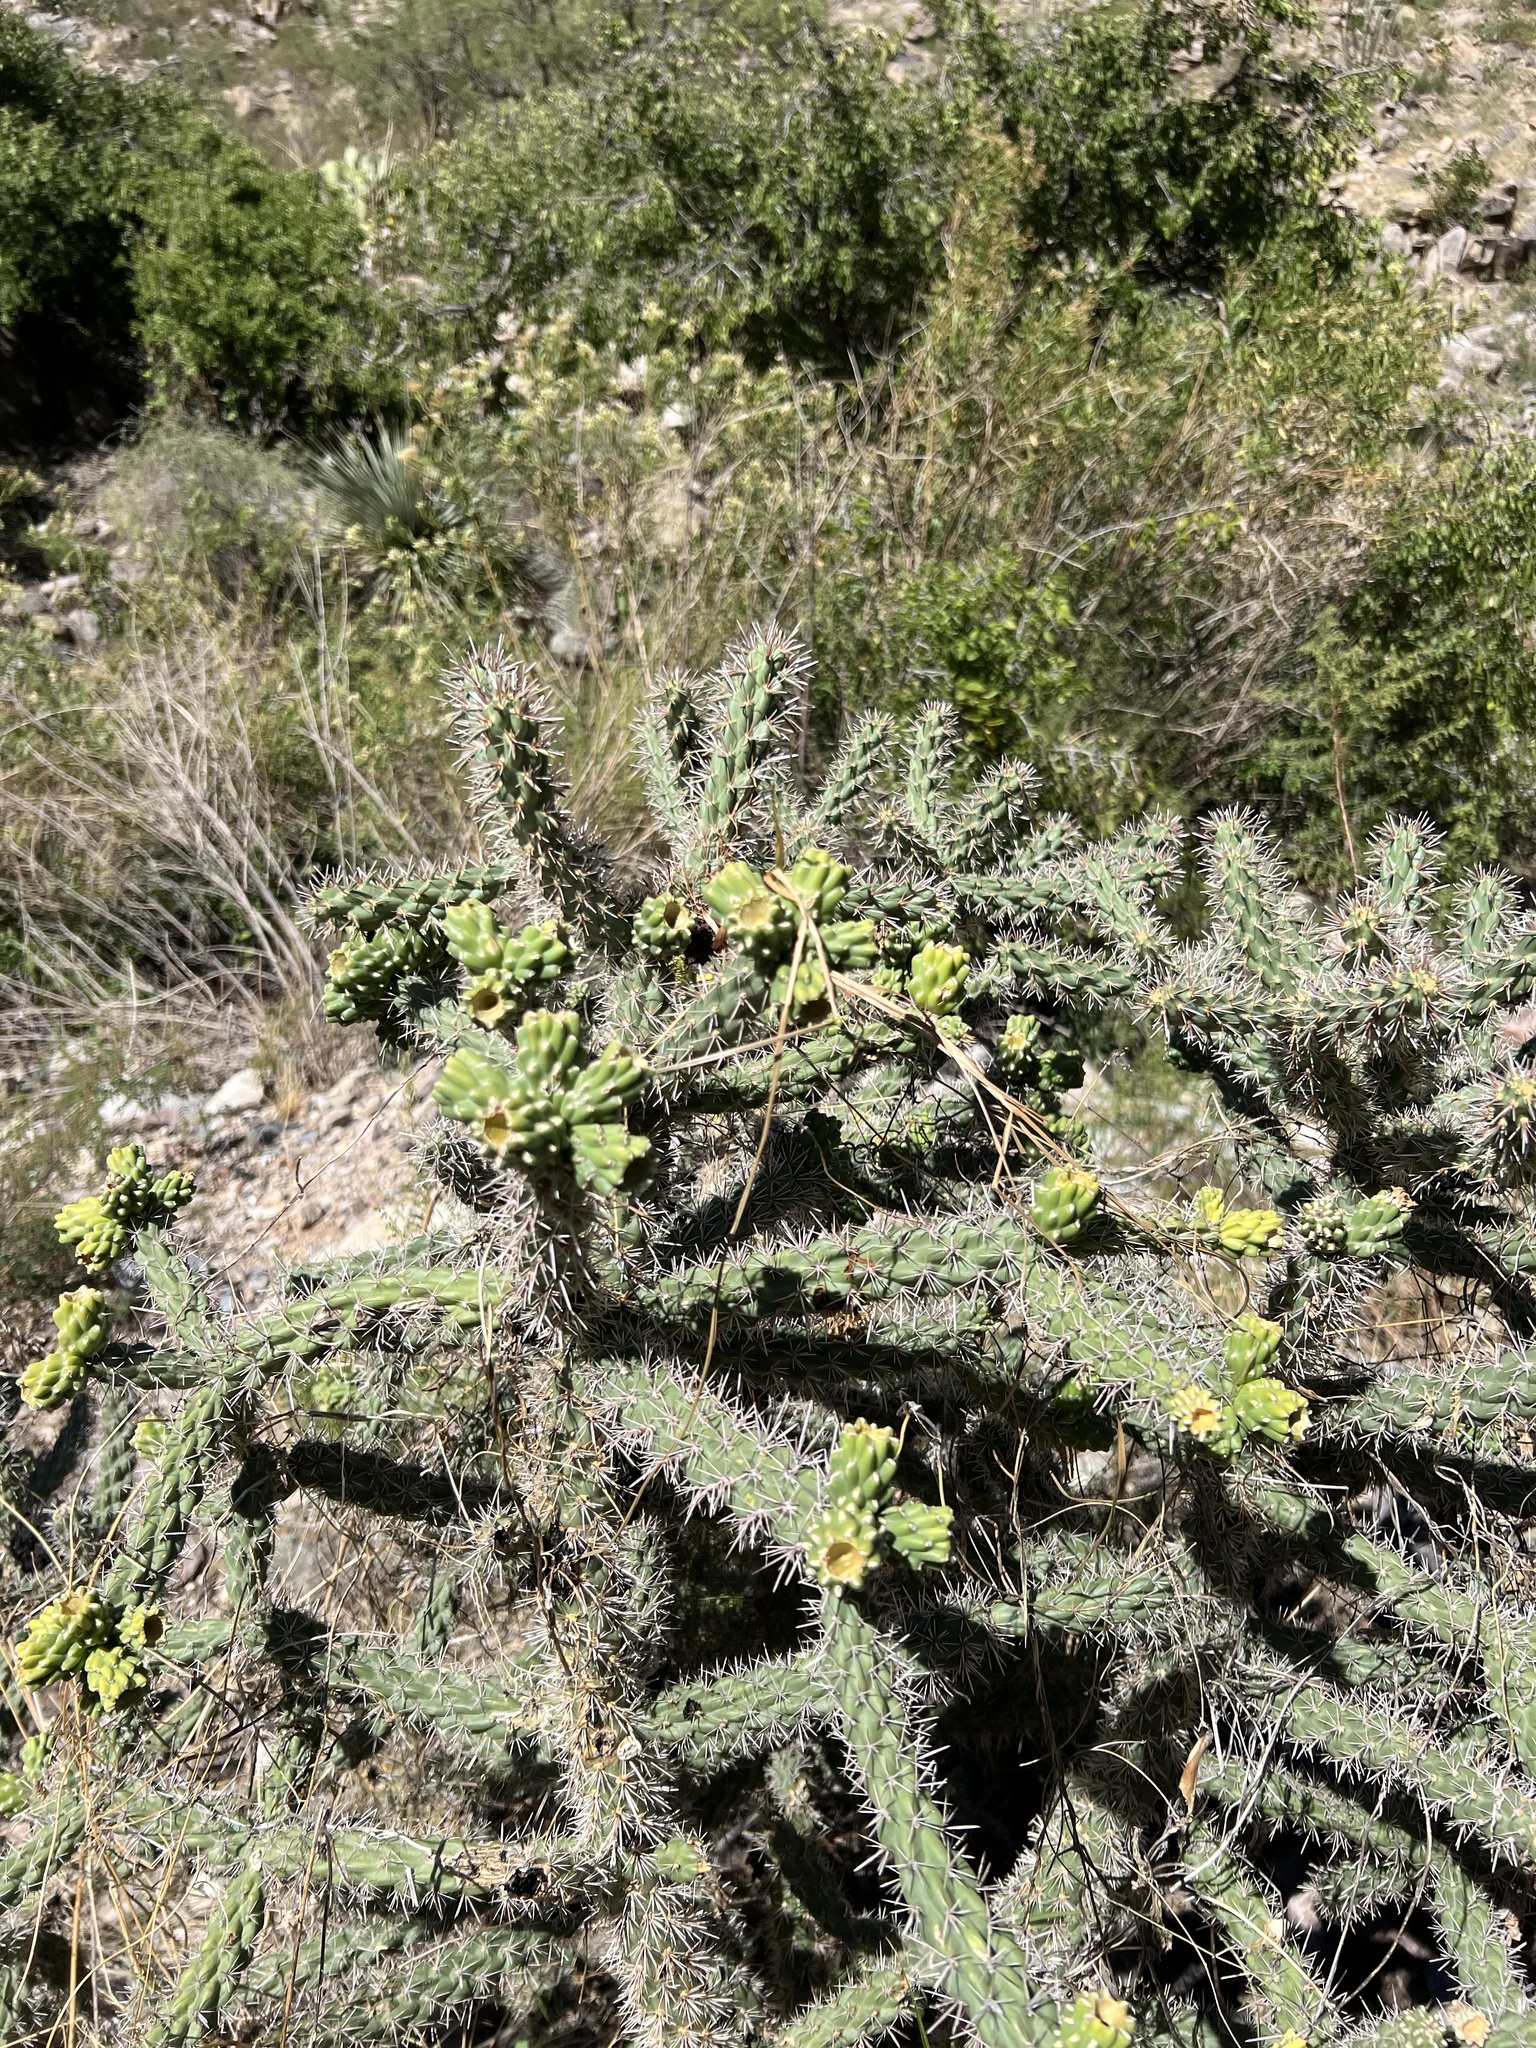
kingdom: Plantae
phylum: Tracheophyta
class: Magnoliopsida
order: Caryophyllales
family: Cactaceae
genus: Cylindropuntia
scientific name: Cylindropuntia imbricata
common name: Candelabrum cactus
